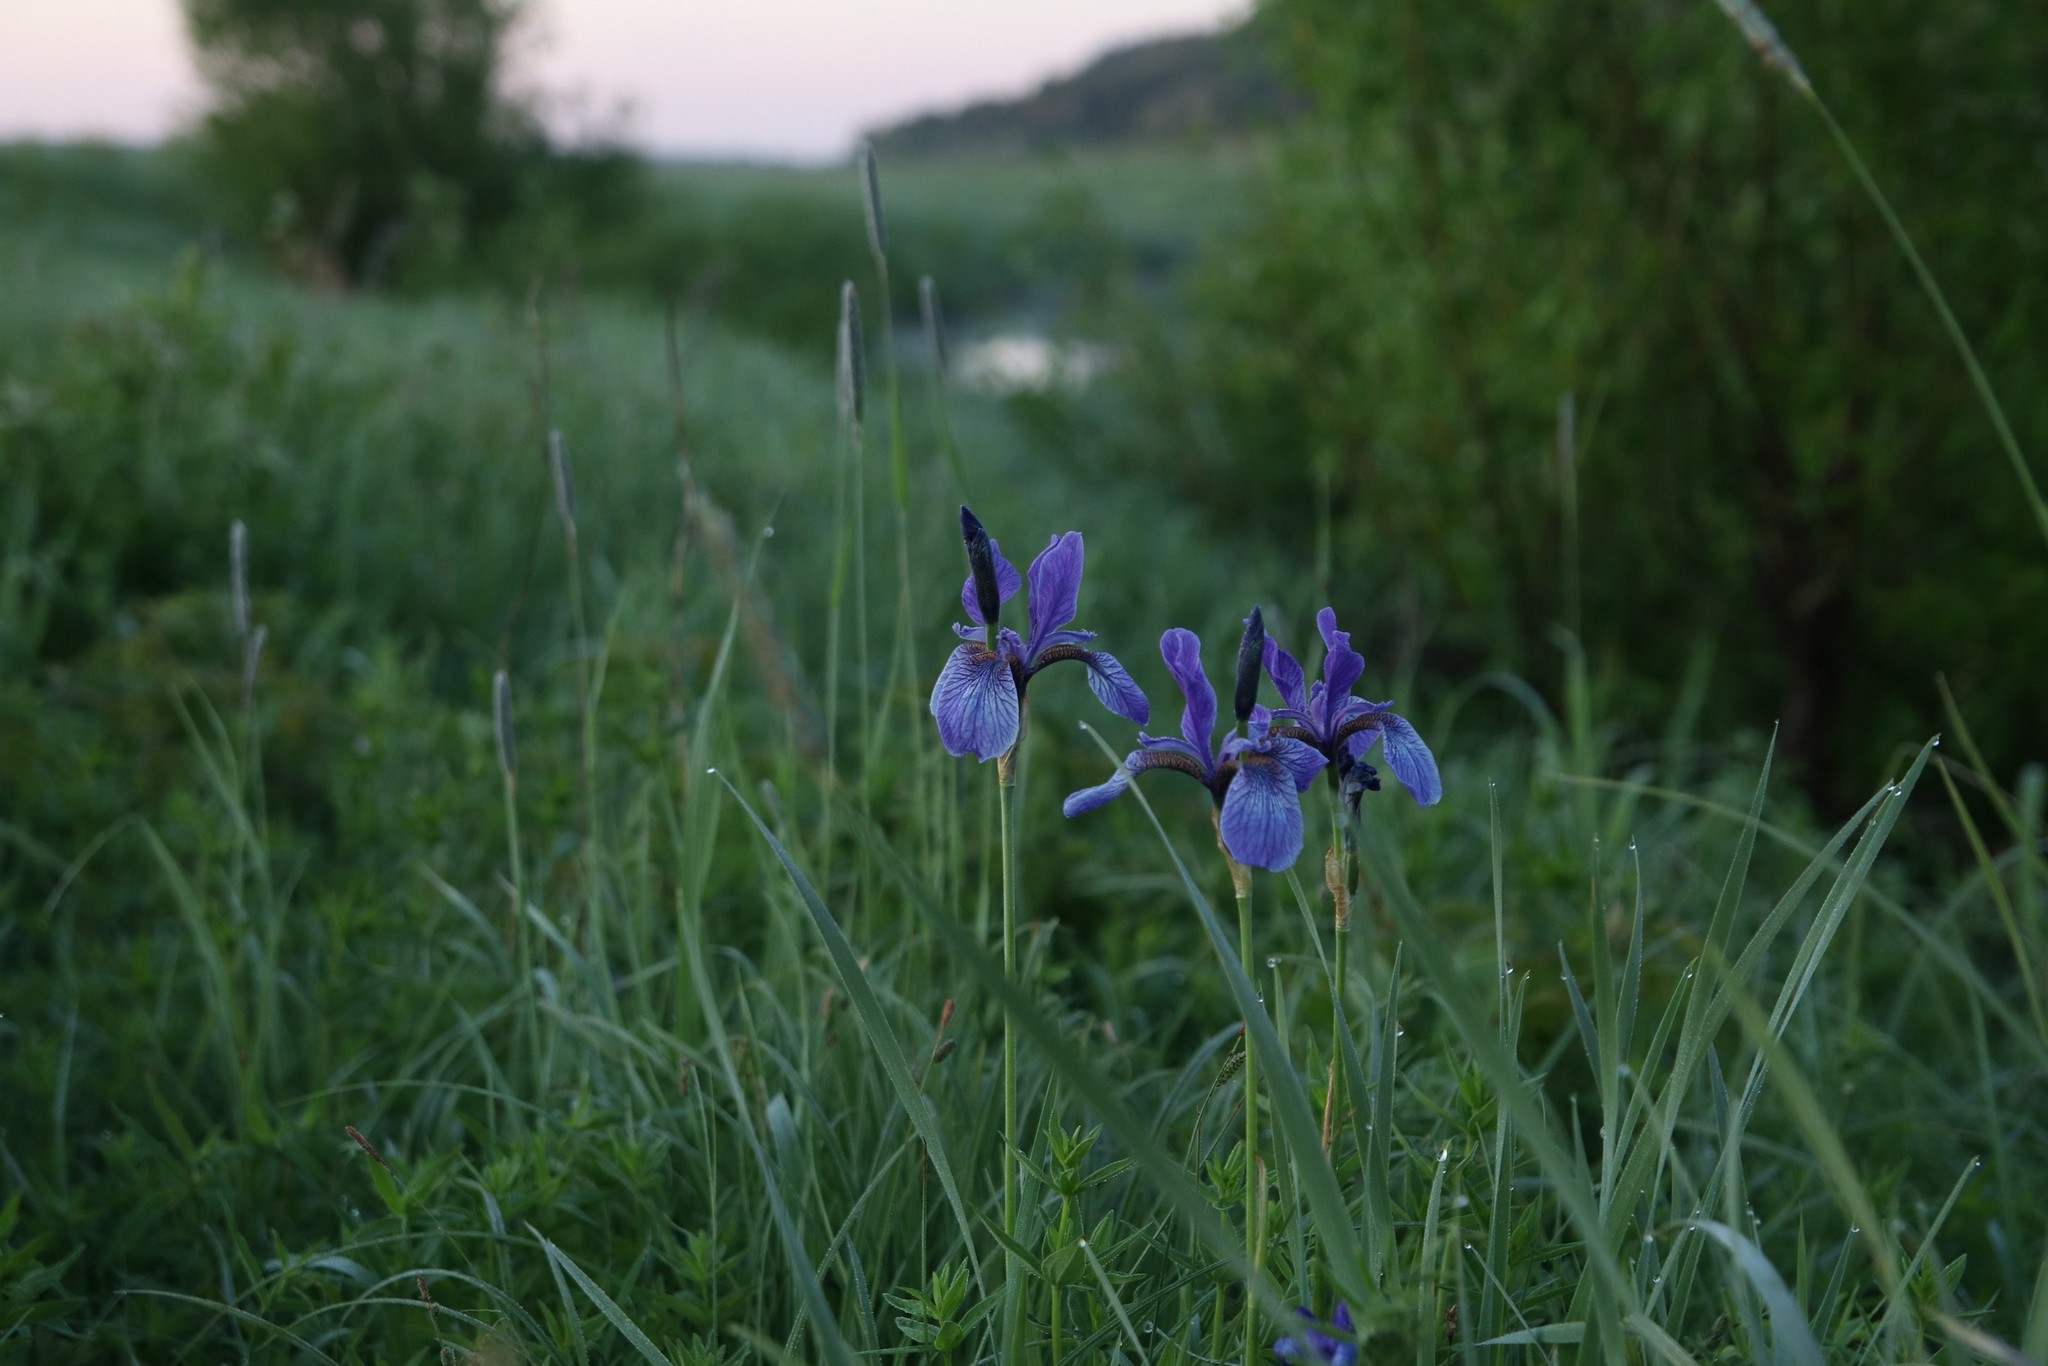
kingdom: Plantae
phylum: Tracheophyta
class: Liliopsida
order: Asparagales
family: Iridaceae
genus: Iris
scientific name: Iris sibirica
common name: Siberian iris
